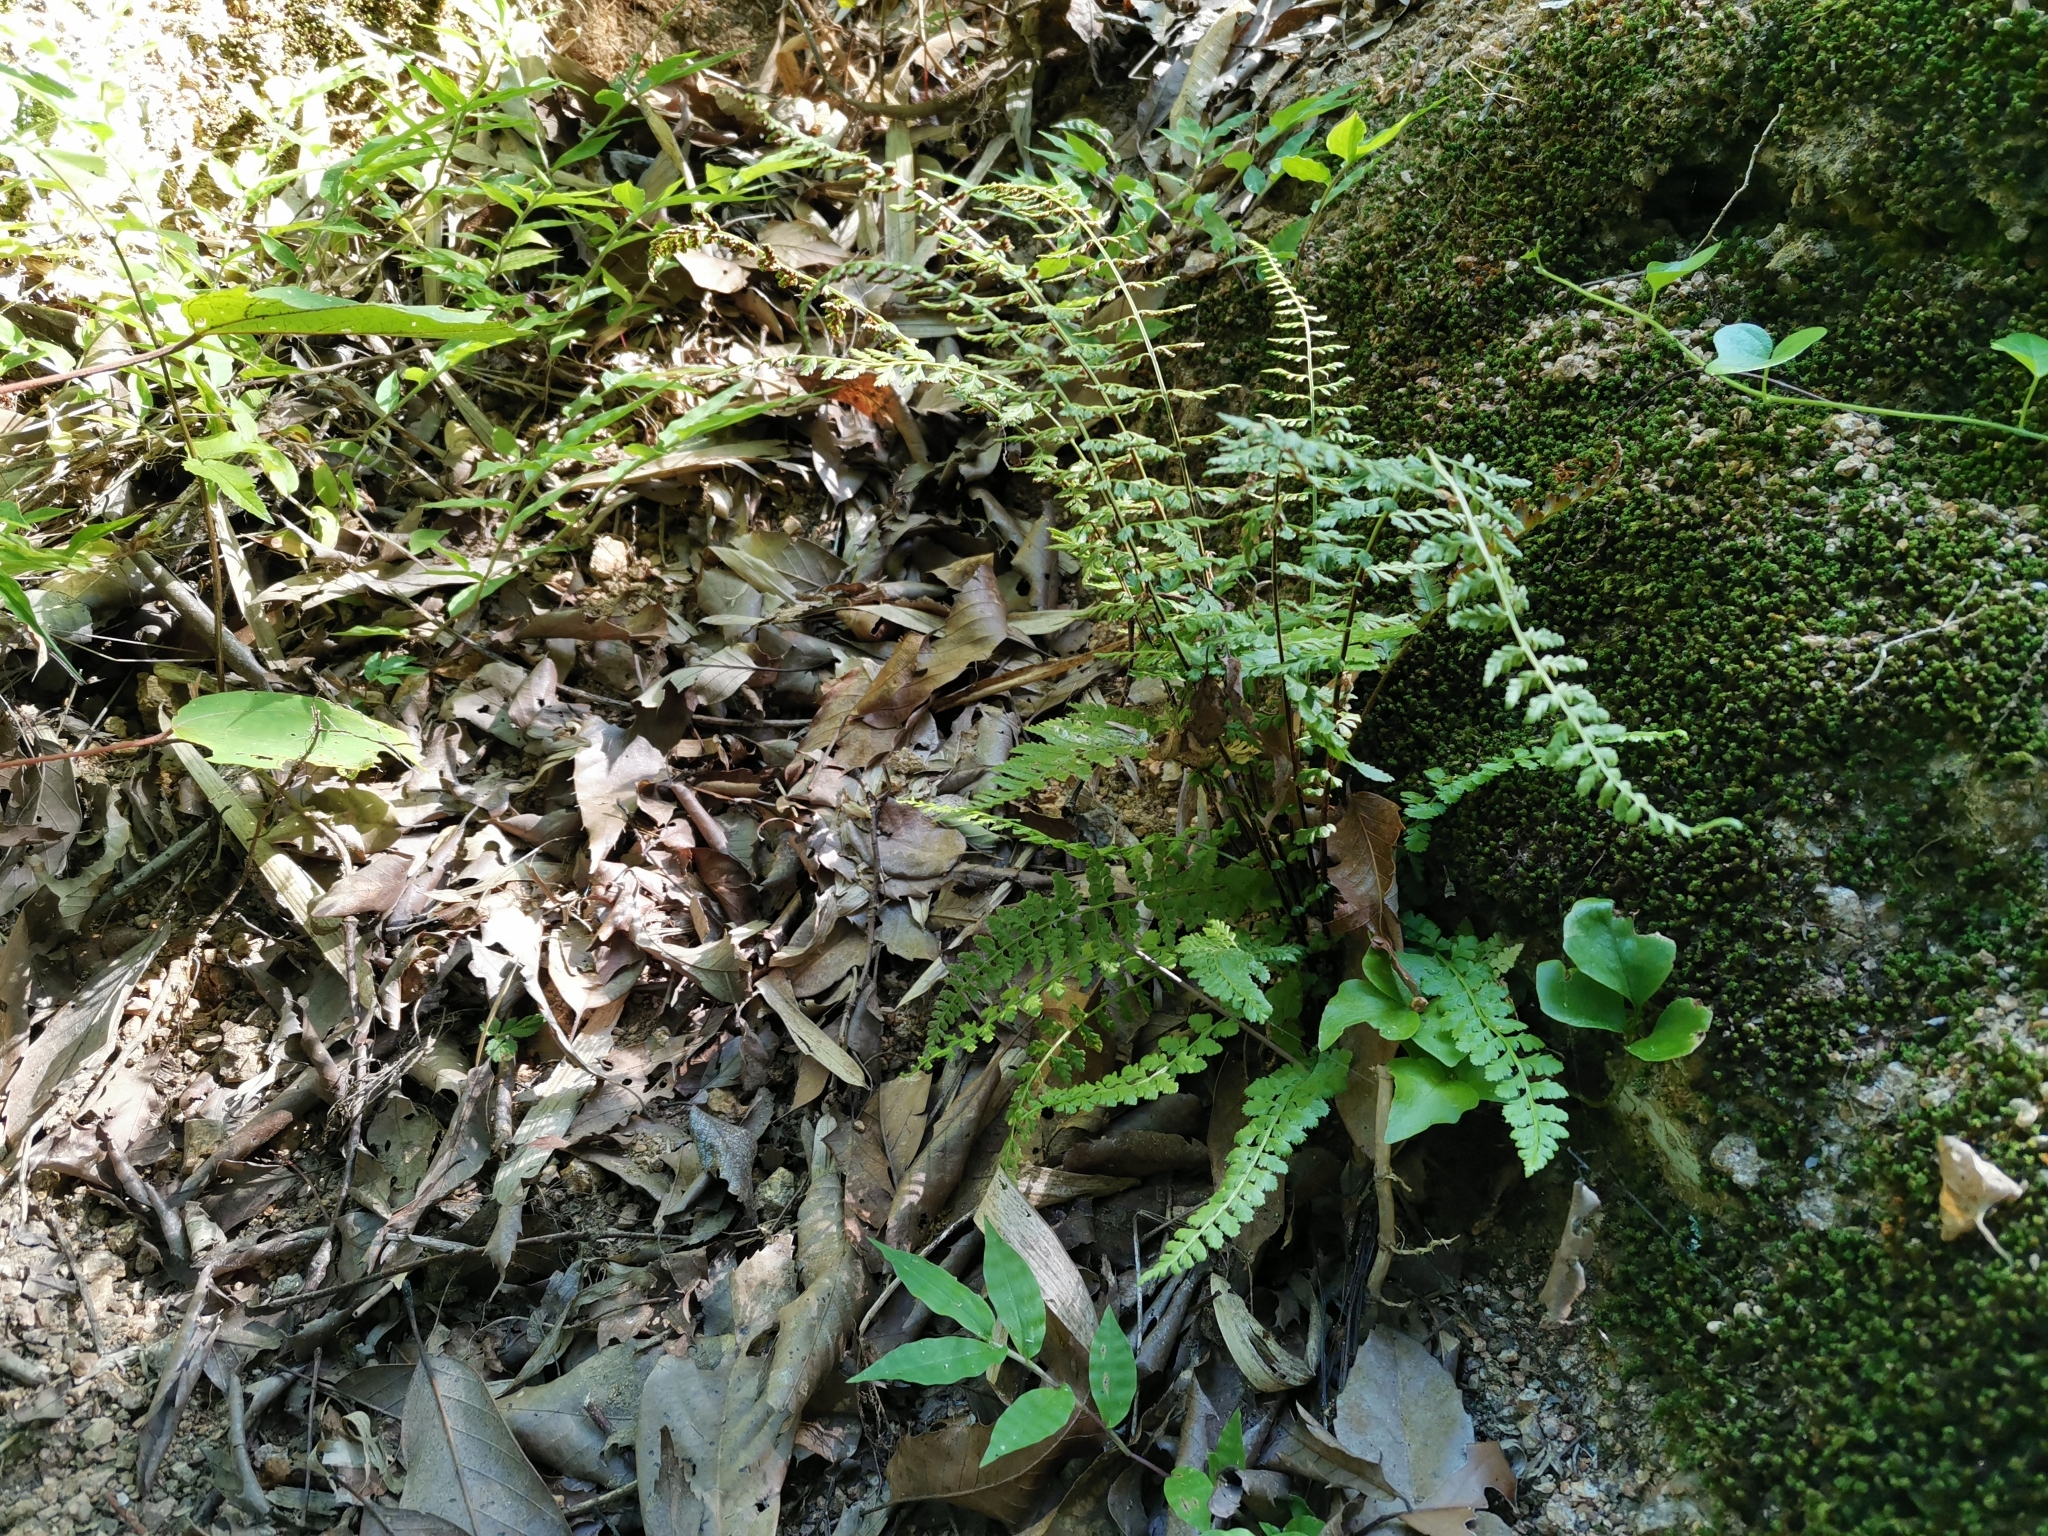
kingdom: Plantae
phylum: Tracheophyta
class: Polypodiopsida
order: Polypodiales
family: Aspleniaceae
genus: Asplenium
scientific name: Asplenium incisum
